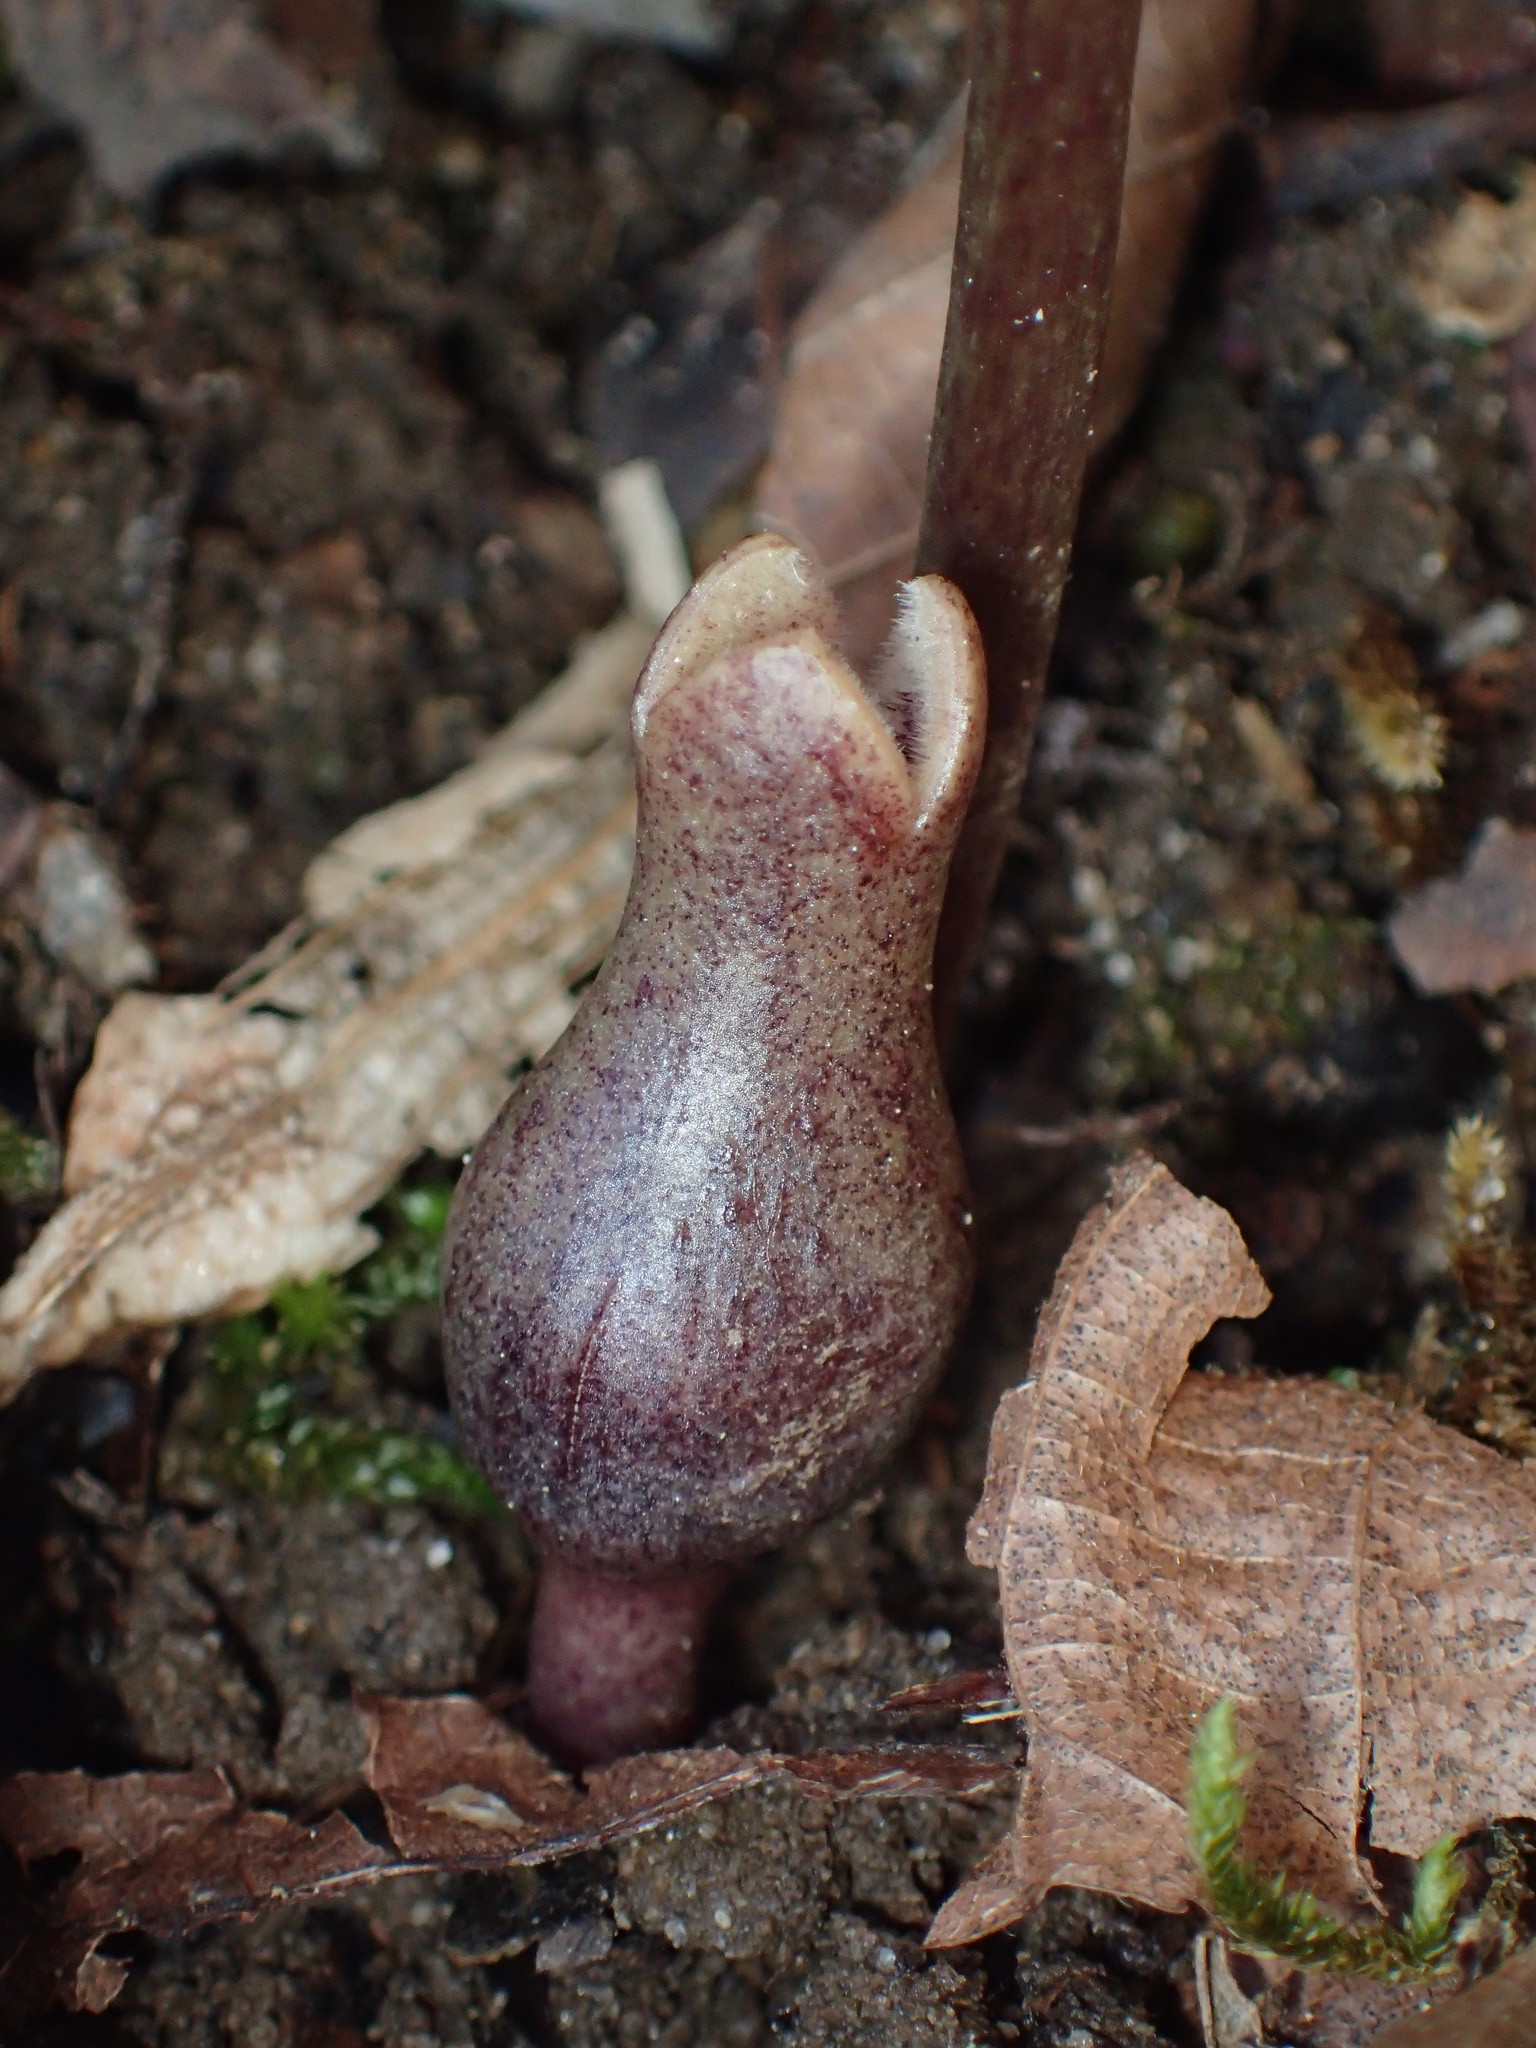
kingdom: Plantae
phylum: Tracheophyta
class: Magnoliopsida
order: Piperales
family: Aristolochiaceae
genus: Hexastylis
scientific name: Hexastylis arifolia
